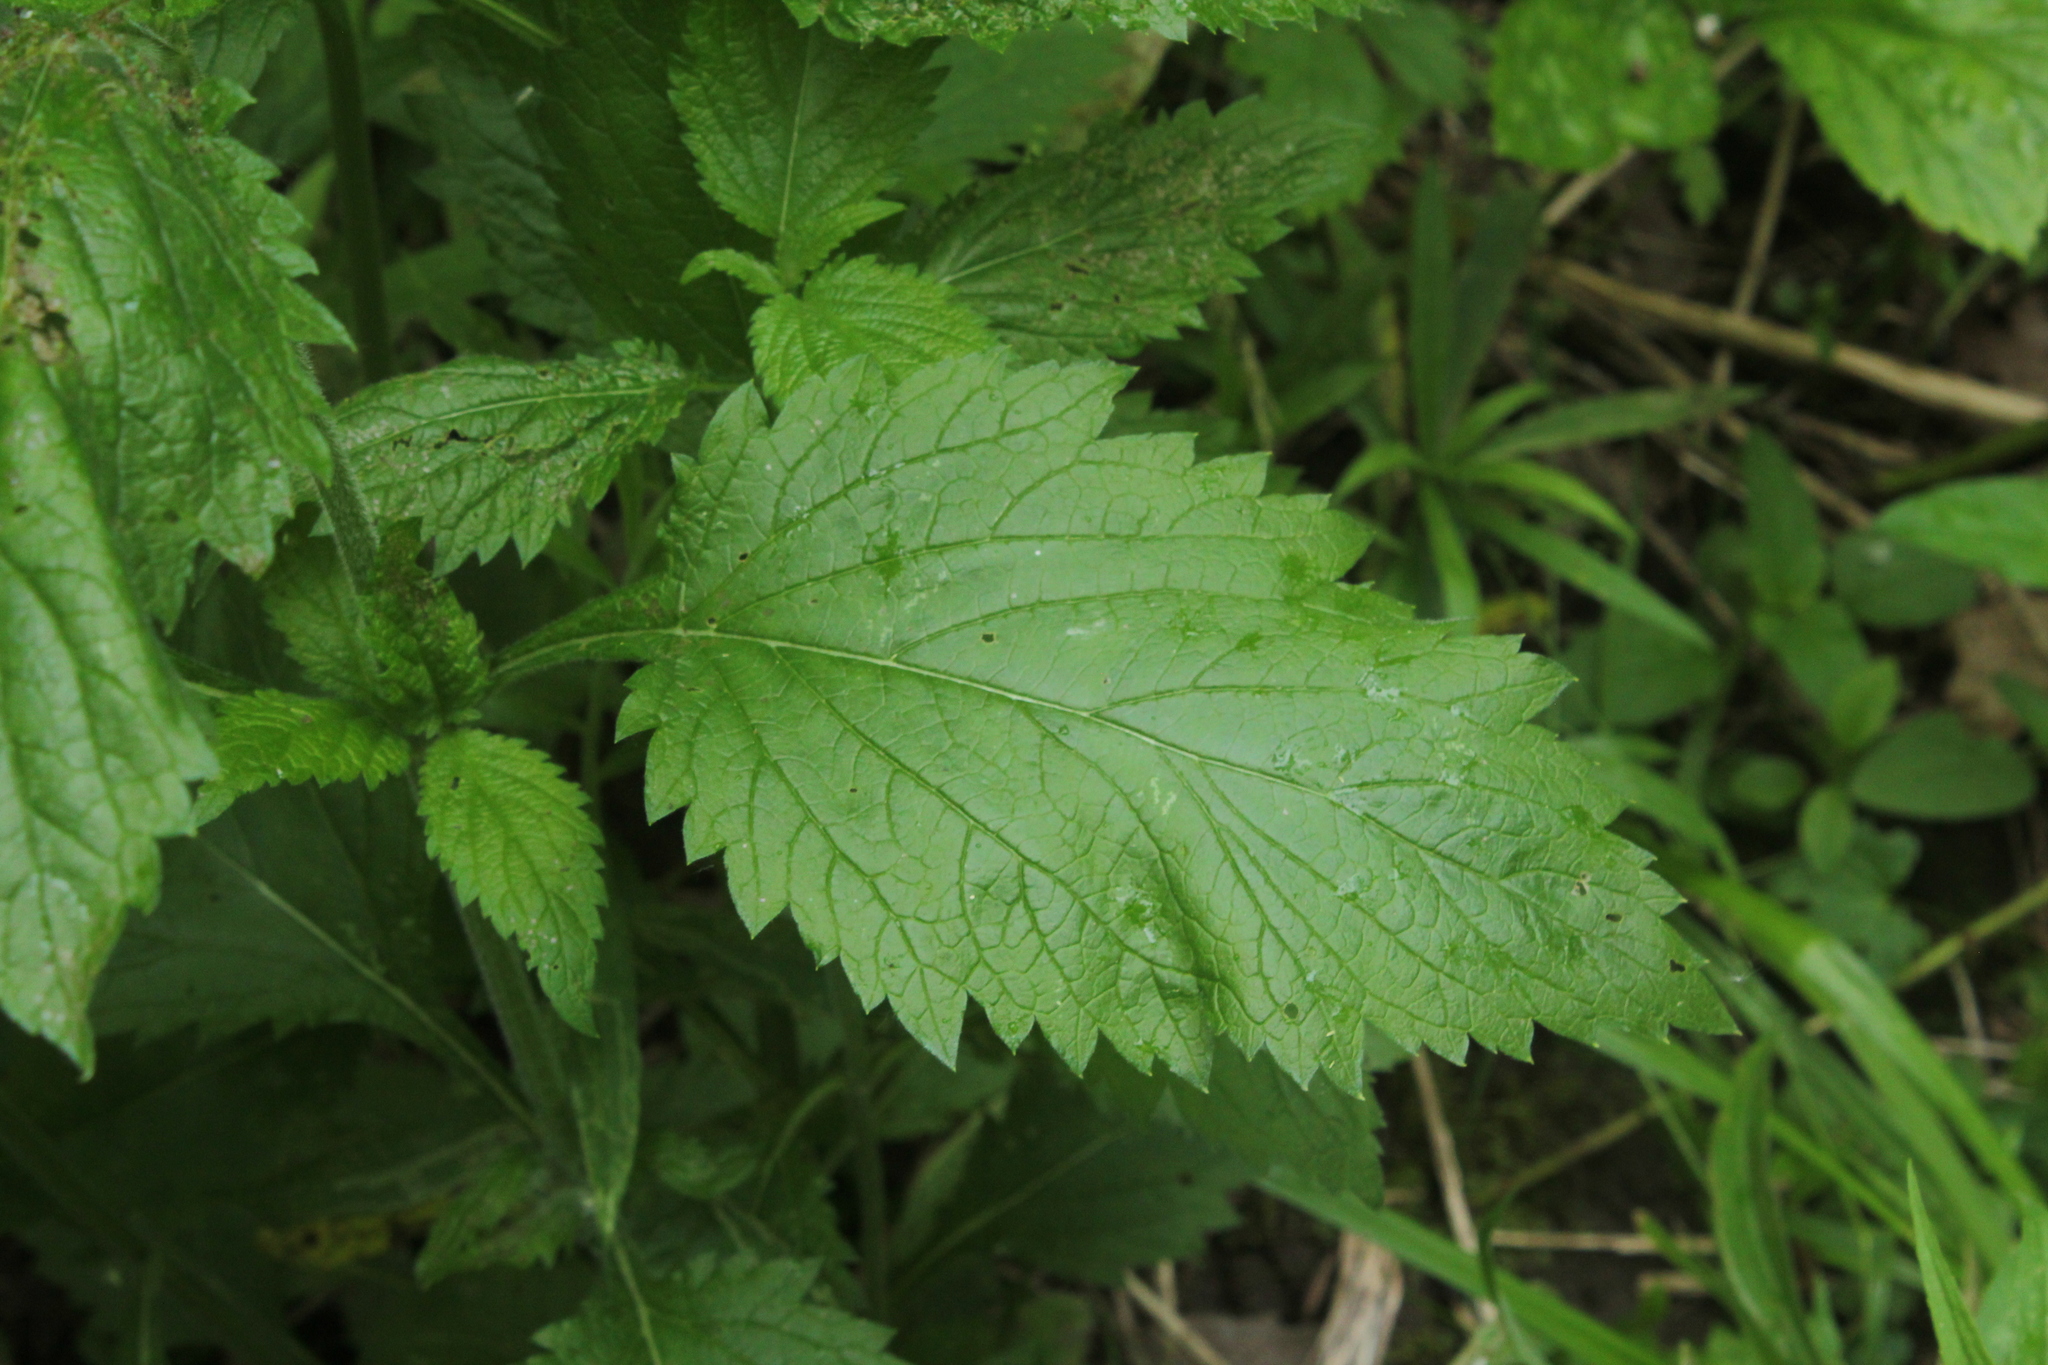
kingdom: Plantae
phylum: Tracheophyta
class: Magnoliopsida
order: Lamiales
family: Verbenaceae
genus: Verbena
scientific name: Verbena urticifolia
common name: Nettle-leaved vervain
